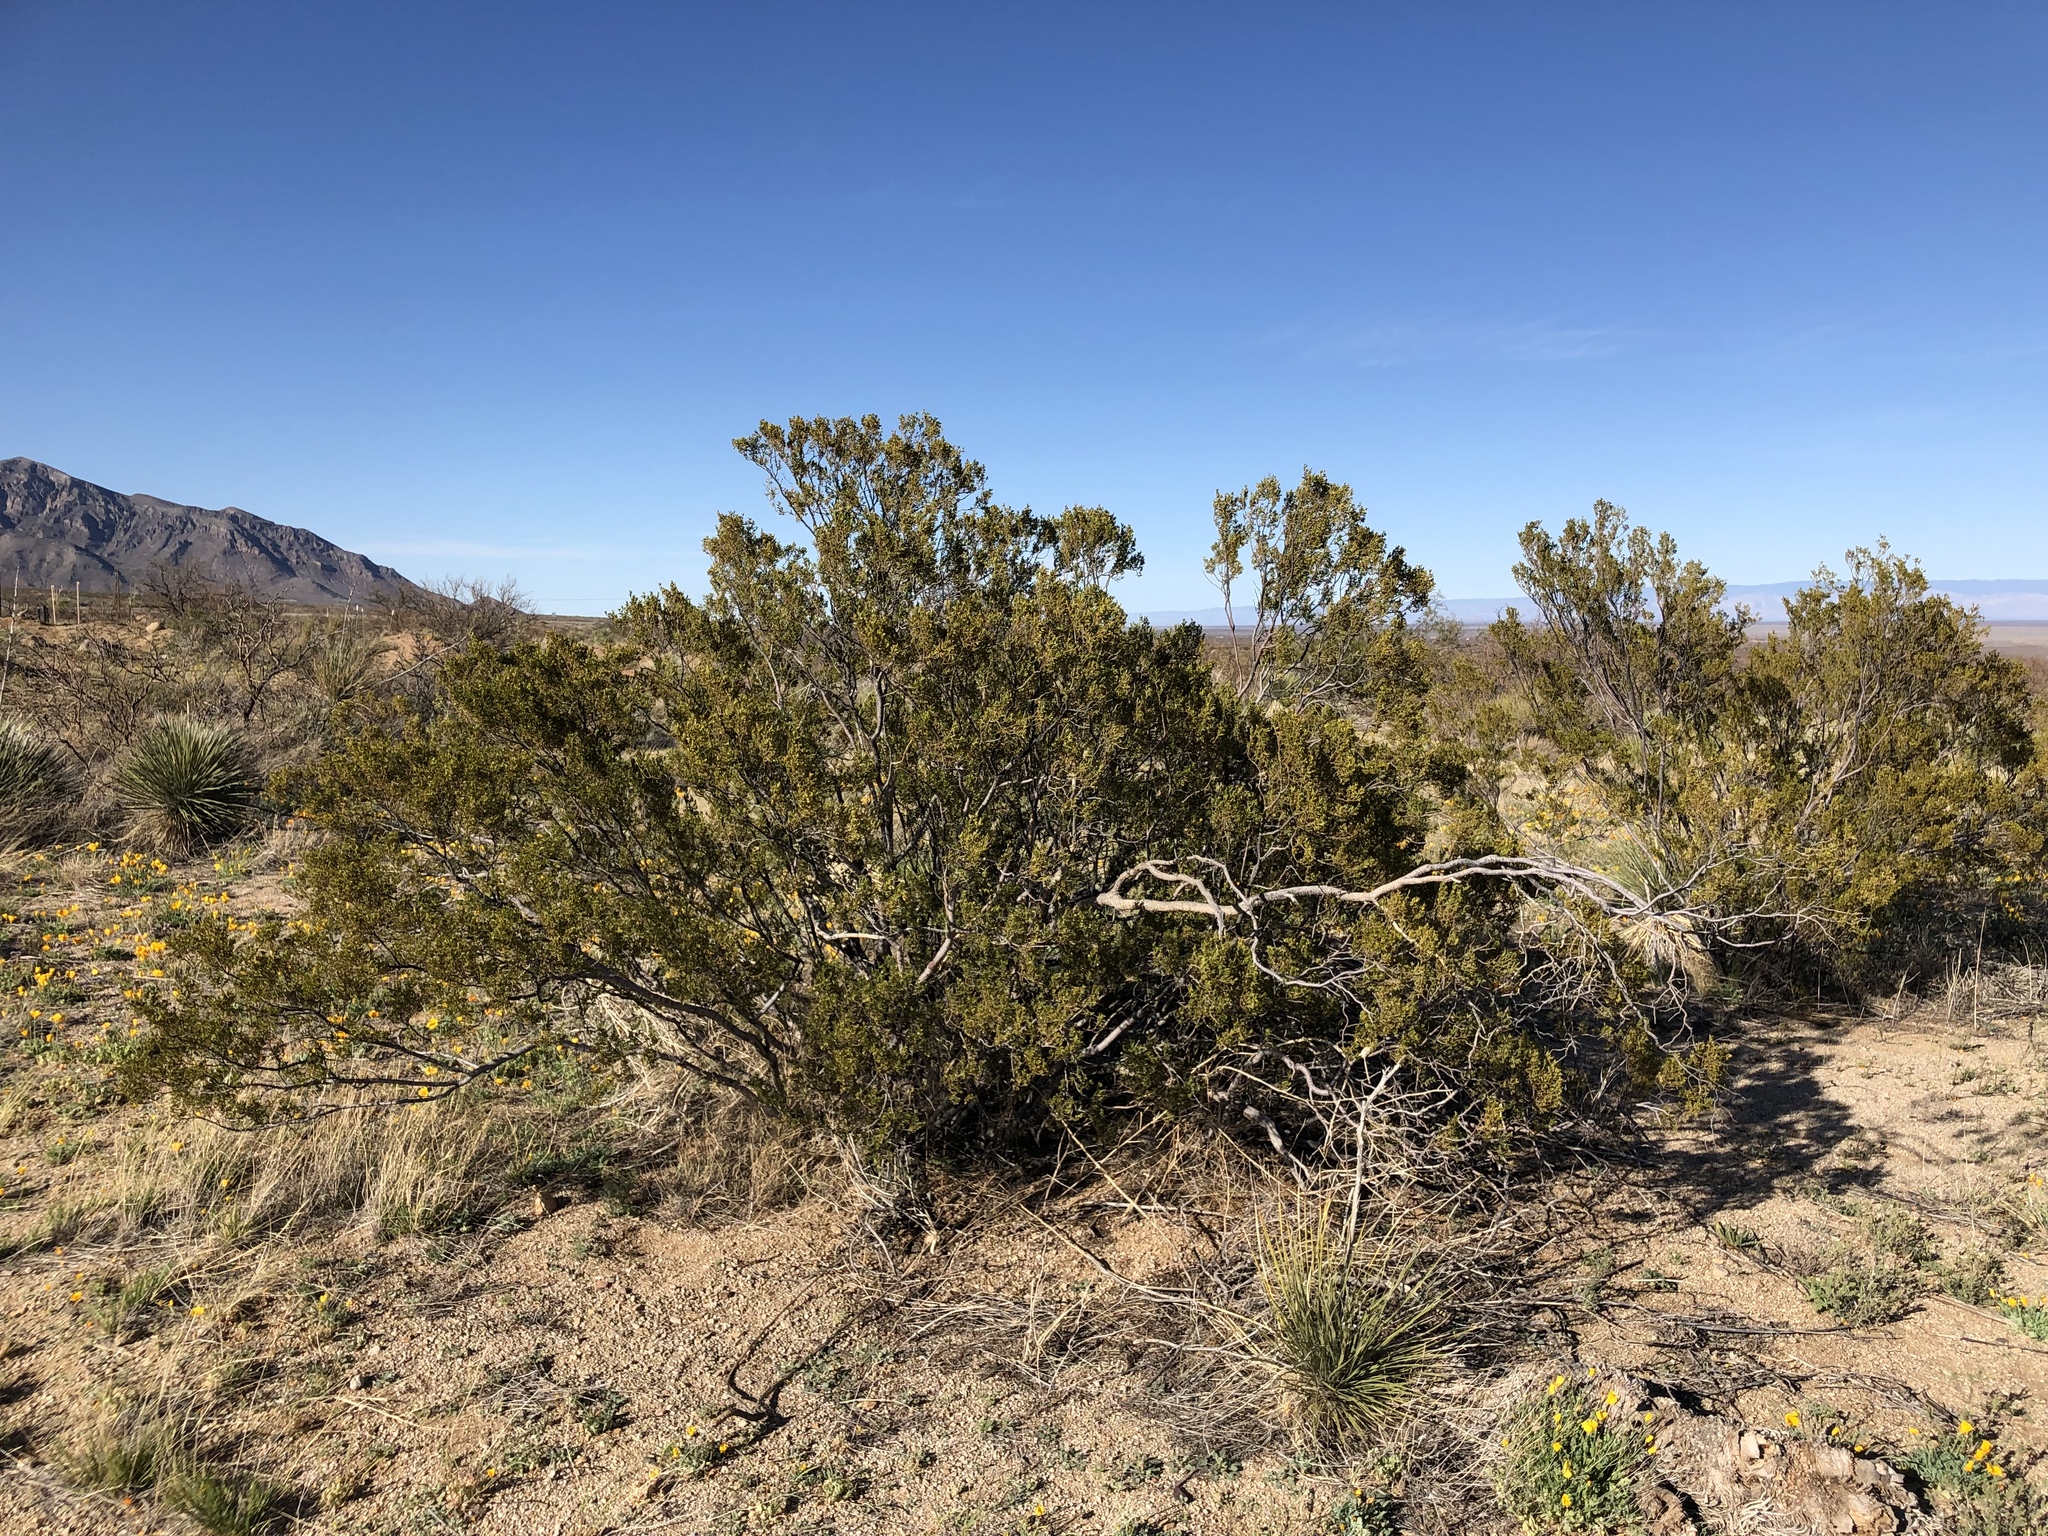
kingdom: Plantae
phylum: Tracheophyta
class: Magnoliopsida
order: Zygophyllales
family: Zygophyllaceae
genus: Larrea
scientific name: Larrea tridentata
